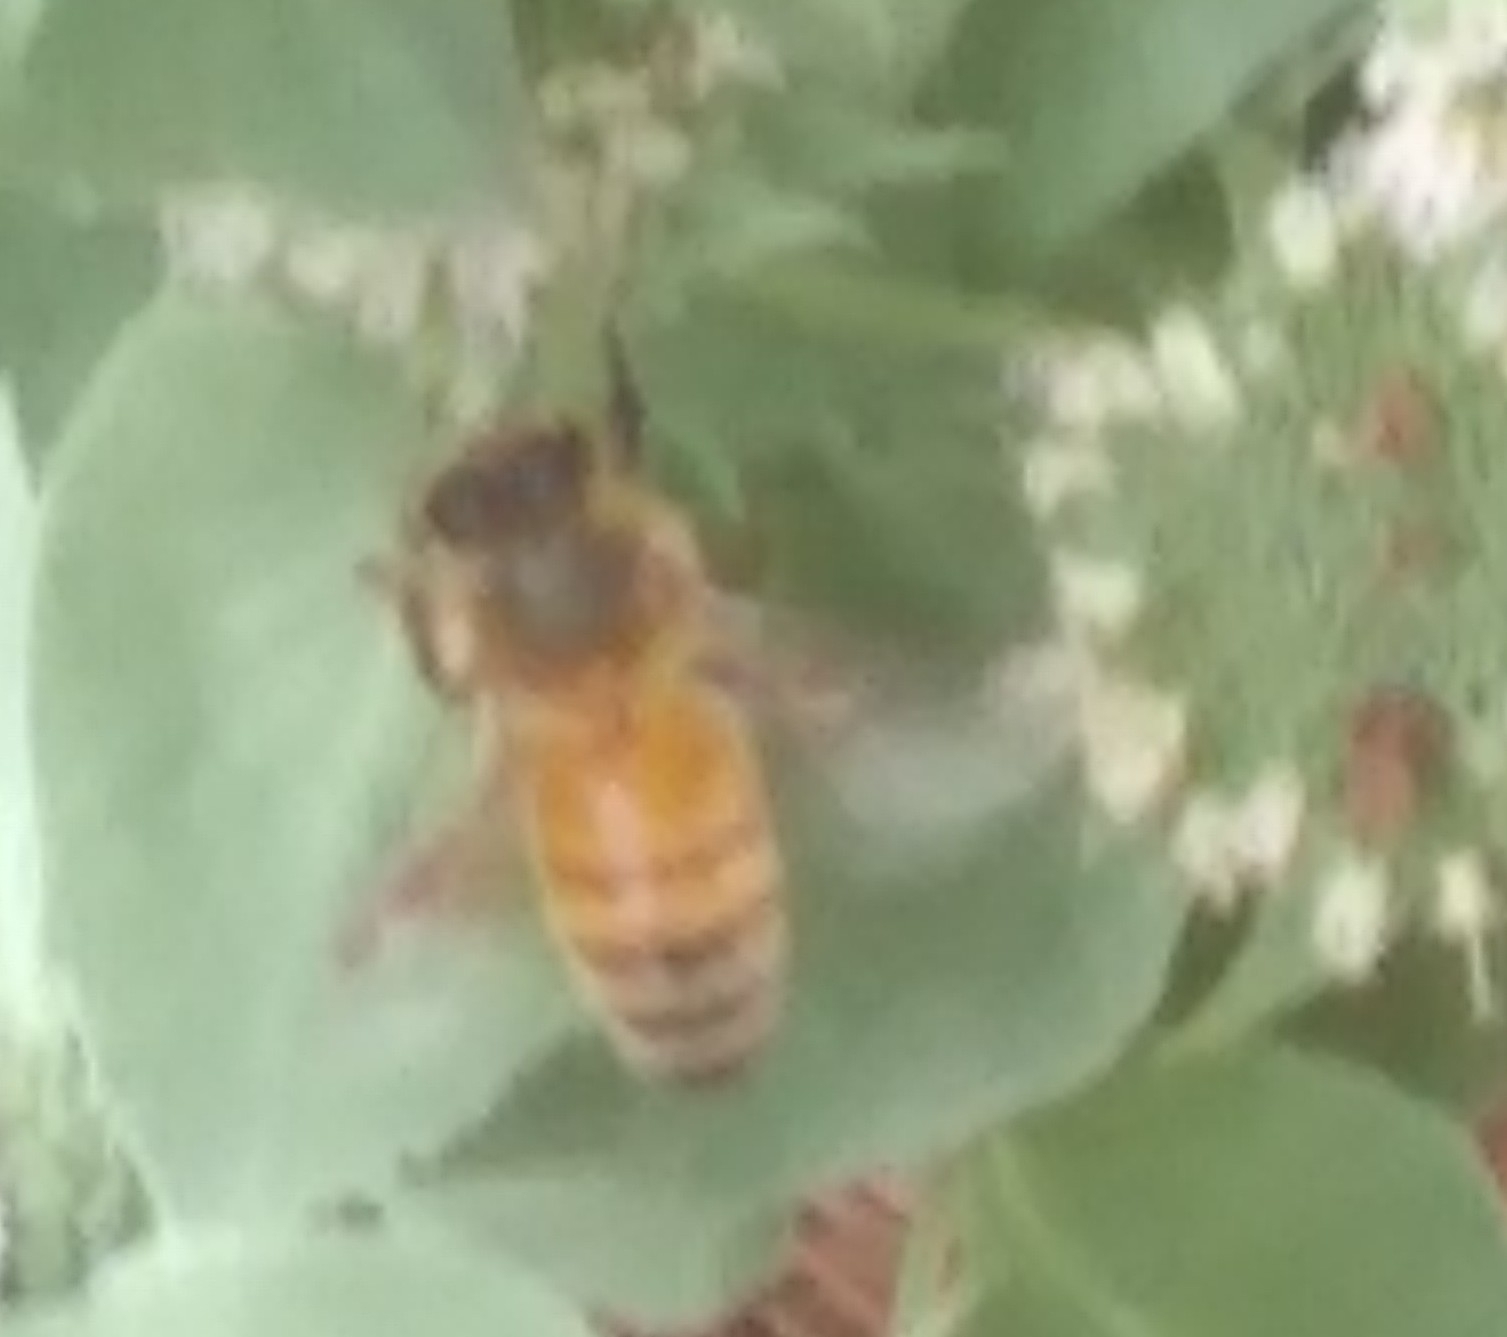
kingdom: Animalia
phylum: Arthropoda
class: Insecta
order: Hymenoptera
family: Apidae
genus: Apis
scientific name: Apis mellifera
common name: Honey bee
